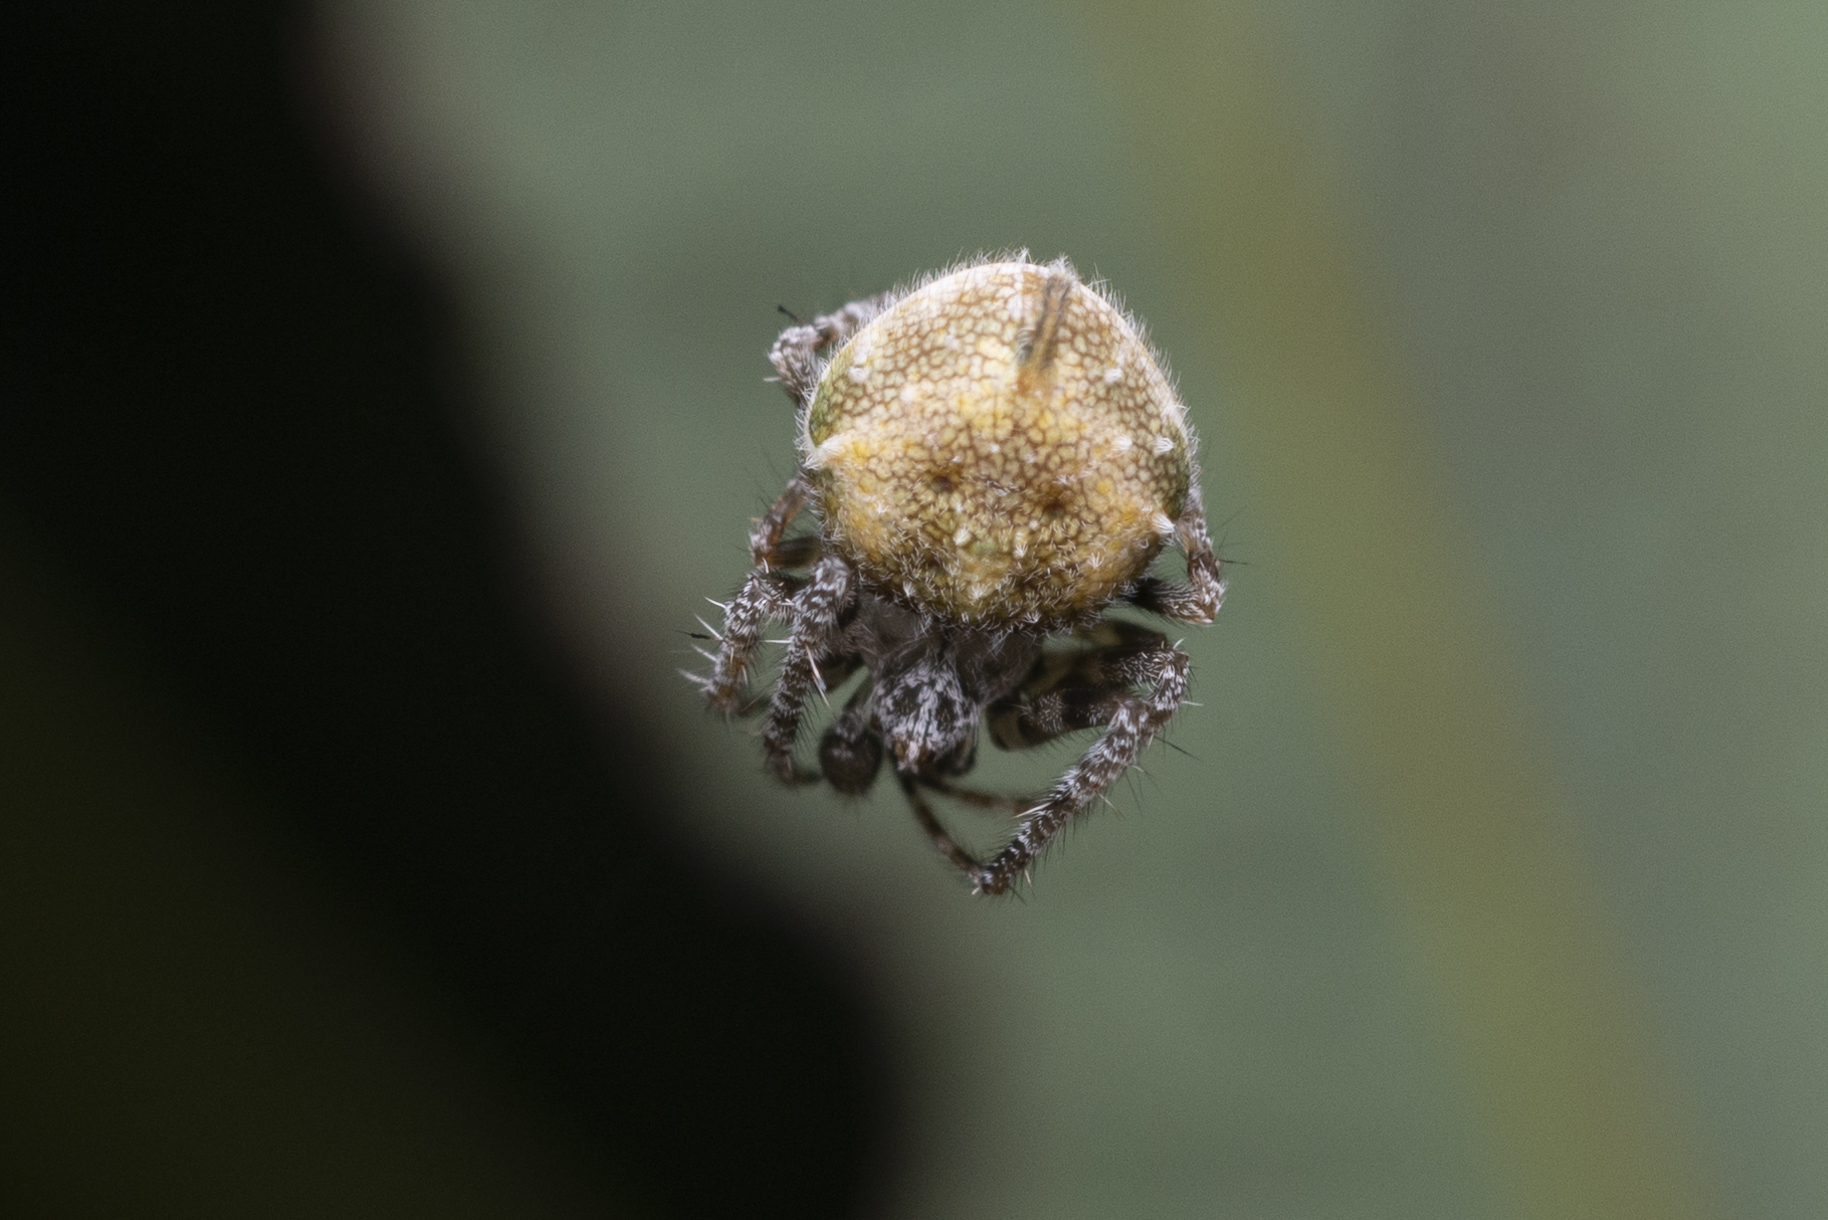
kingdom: Animalia
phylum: Arthropoda
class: Arachnida
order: Araneae
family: Araneidae
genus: Eriovixia
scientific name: Eriovixia laglaizei
